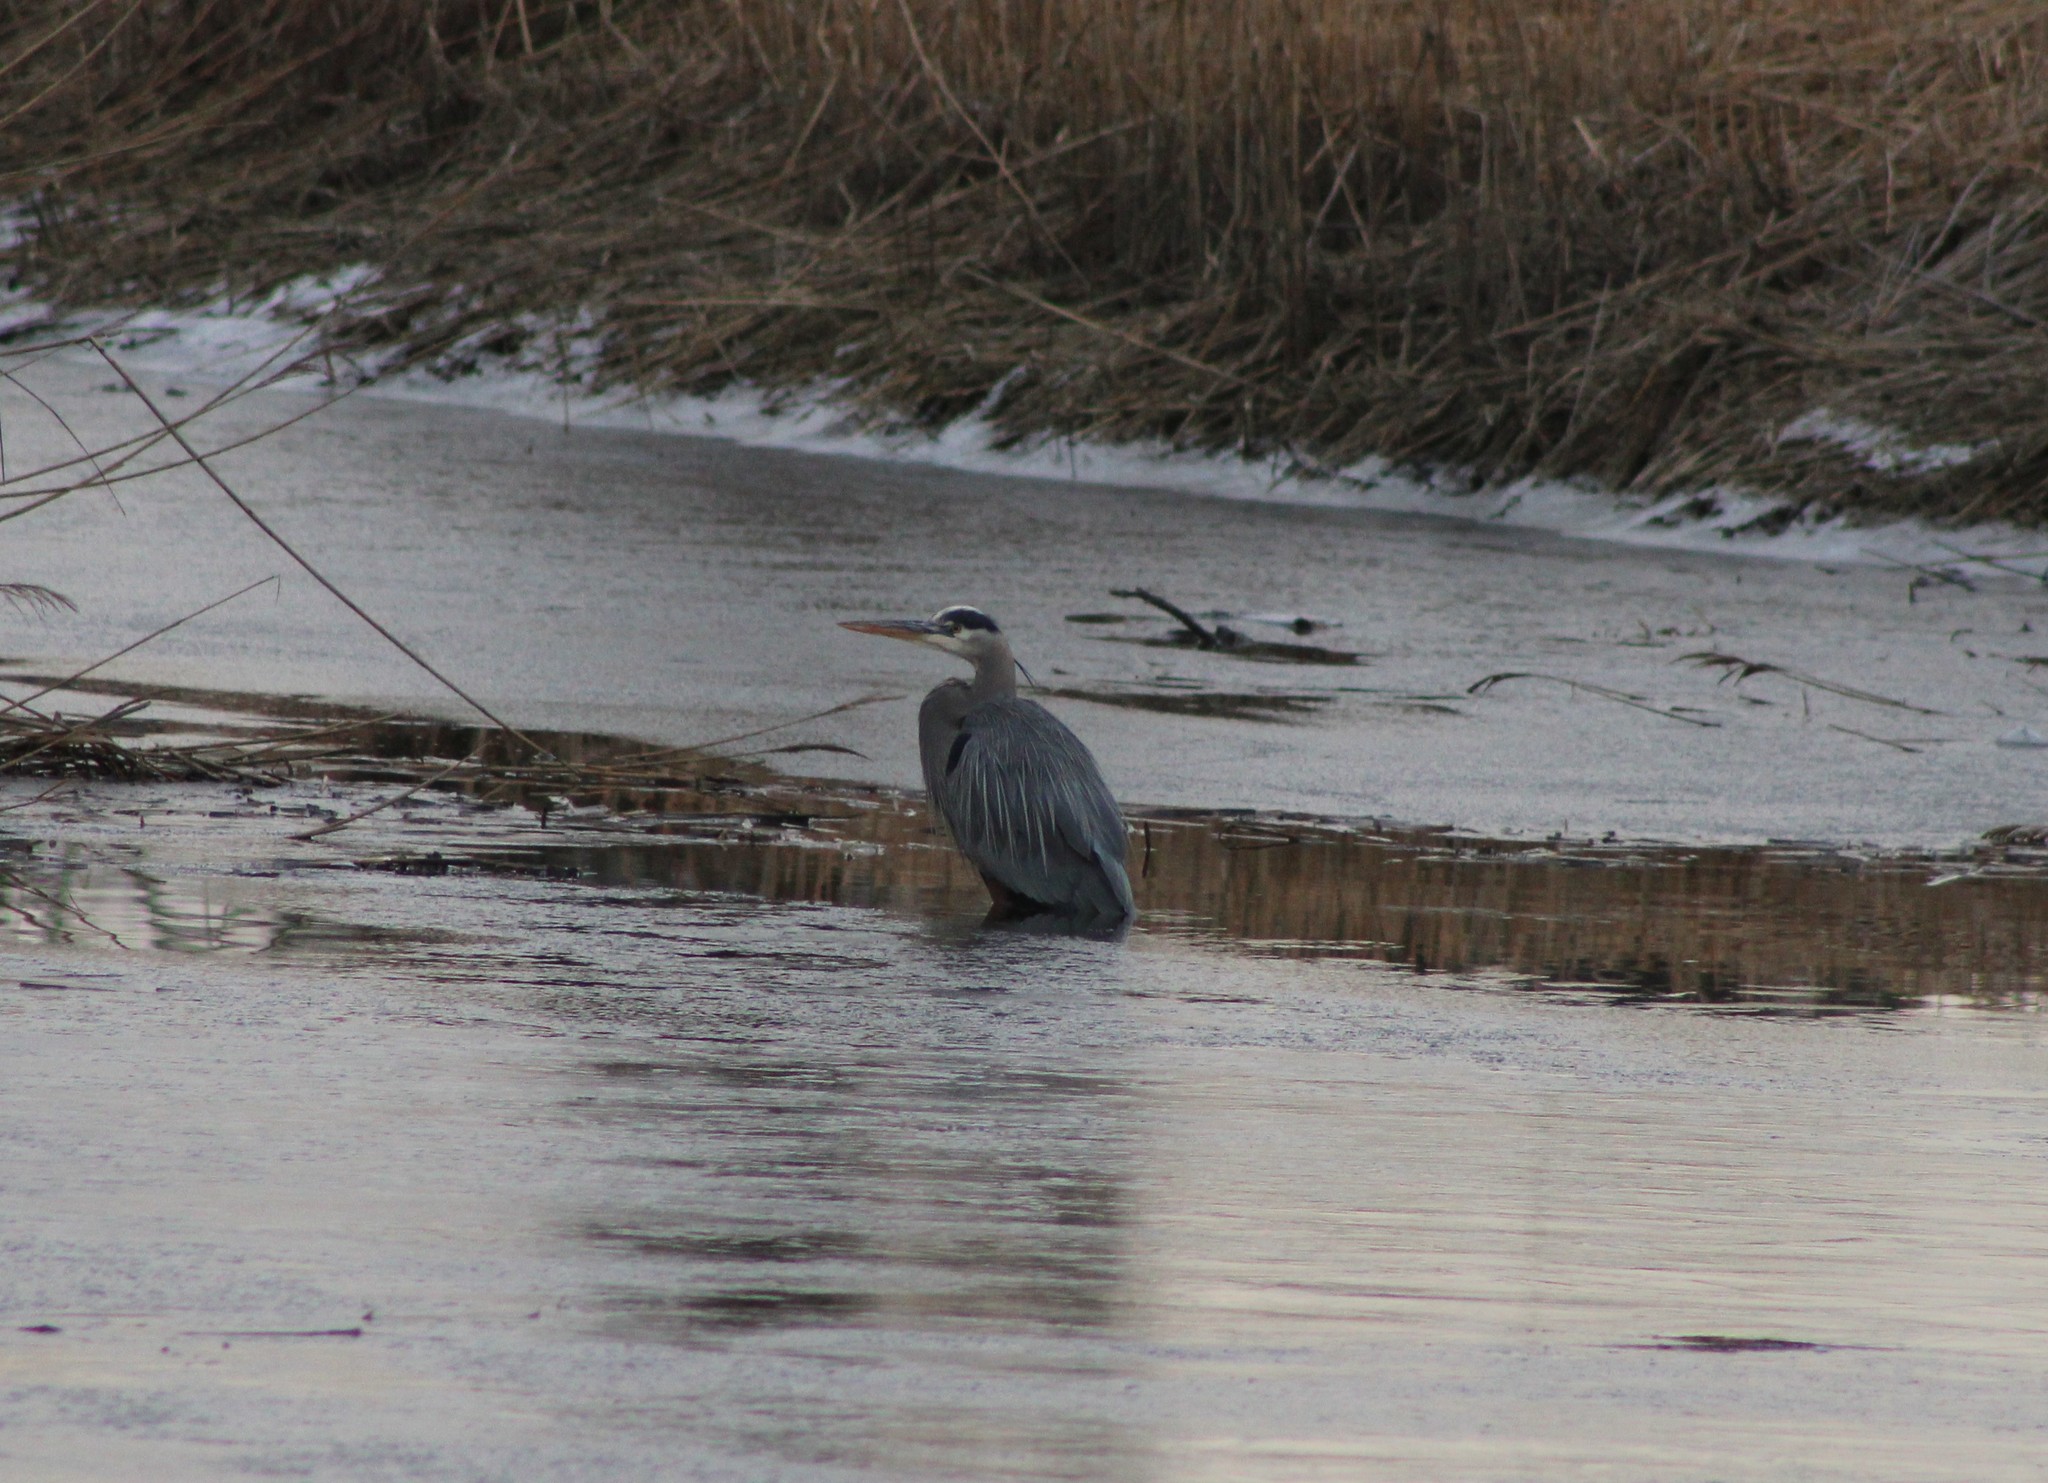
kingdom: Animalia
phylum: Chordata
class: Aves
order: Pelecaniformes
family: Ardeidae
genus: Ardea
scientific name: Ardea herodias
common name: Great blue heron
